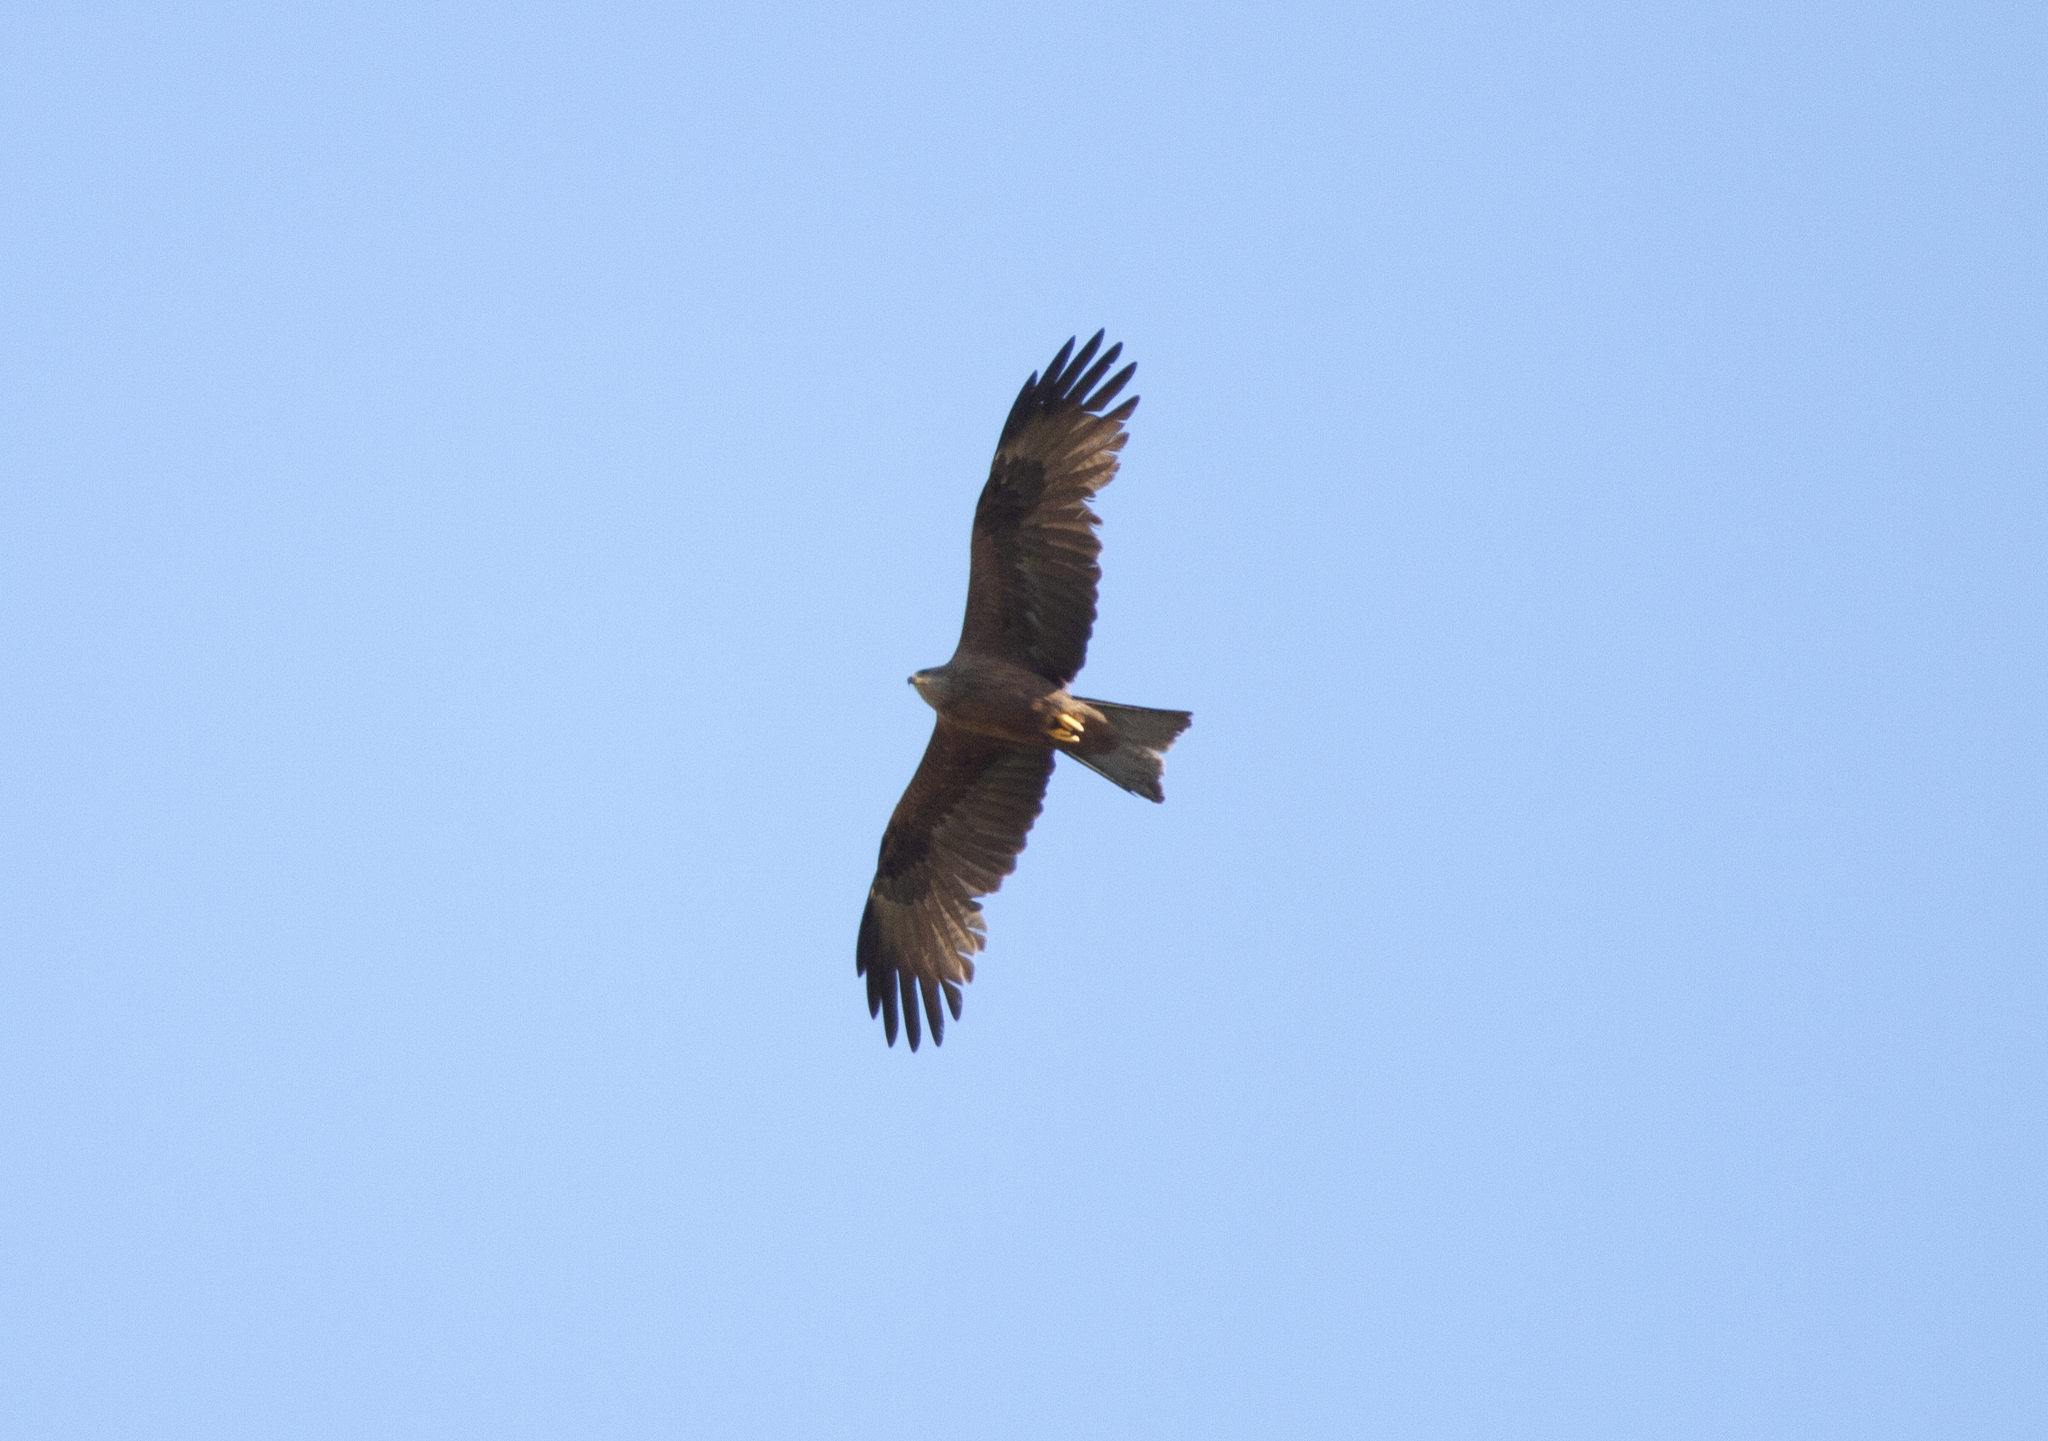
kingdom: Animalia
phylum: Chordata
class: Aves
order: Accipitriformes
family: Accipitridae
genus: Milvus
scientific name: Milvus migrans
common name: Black kite
